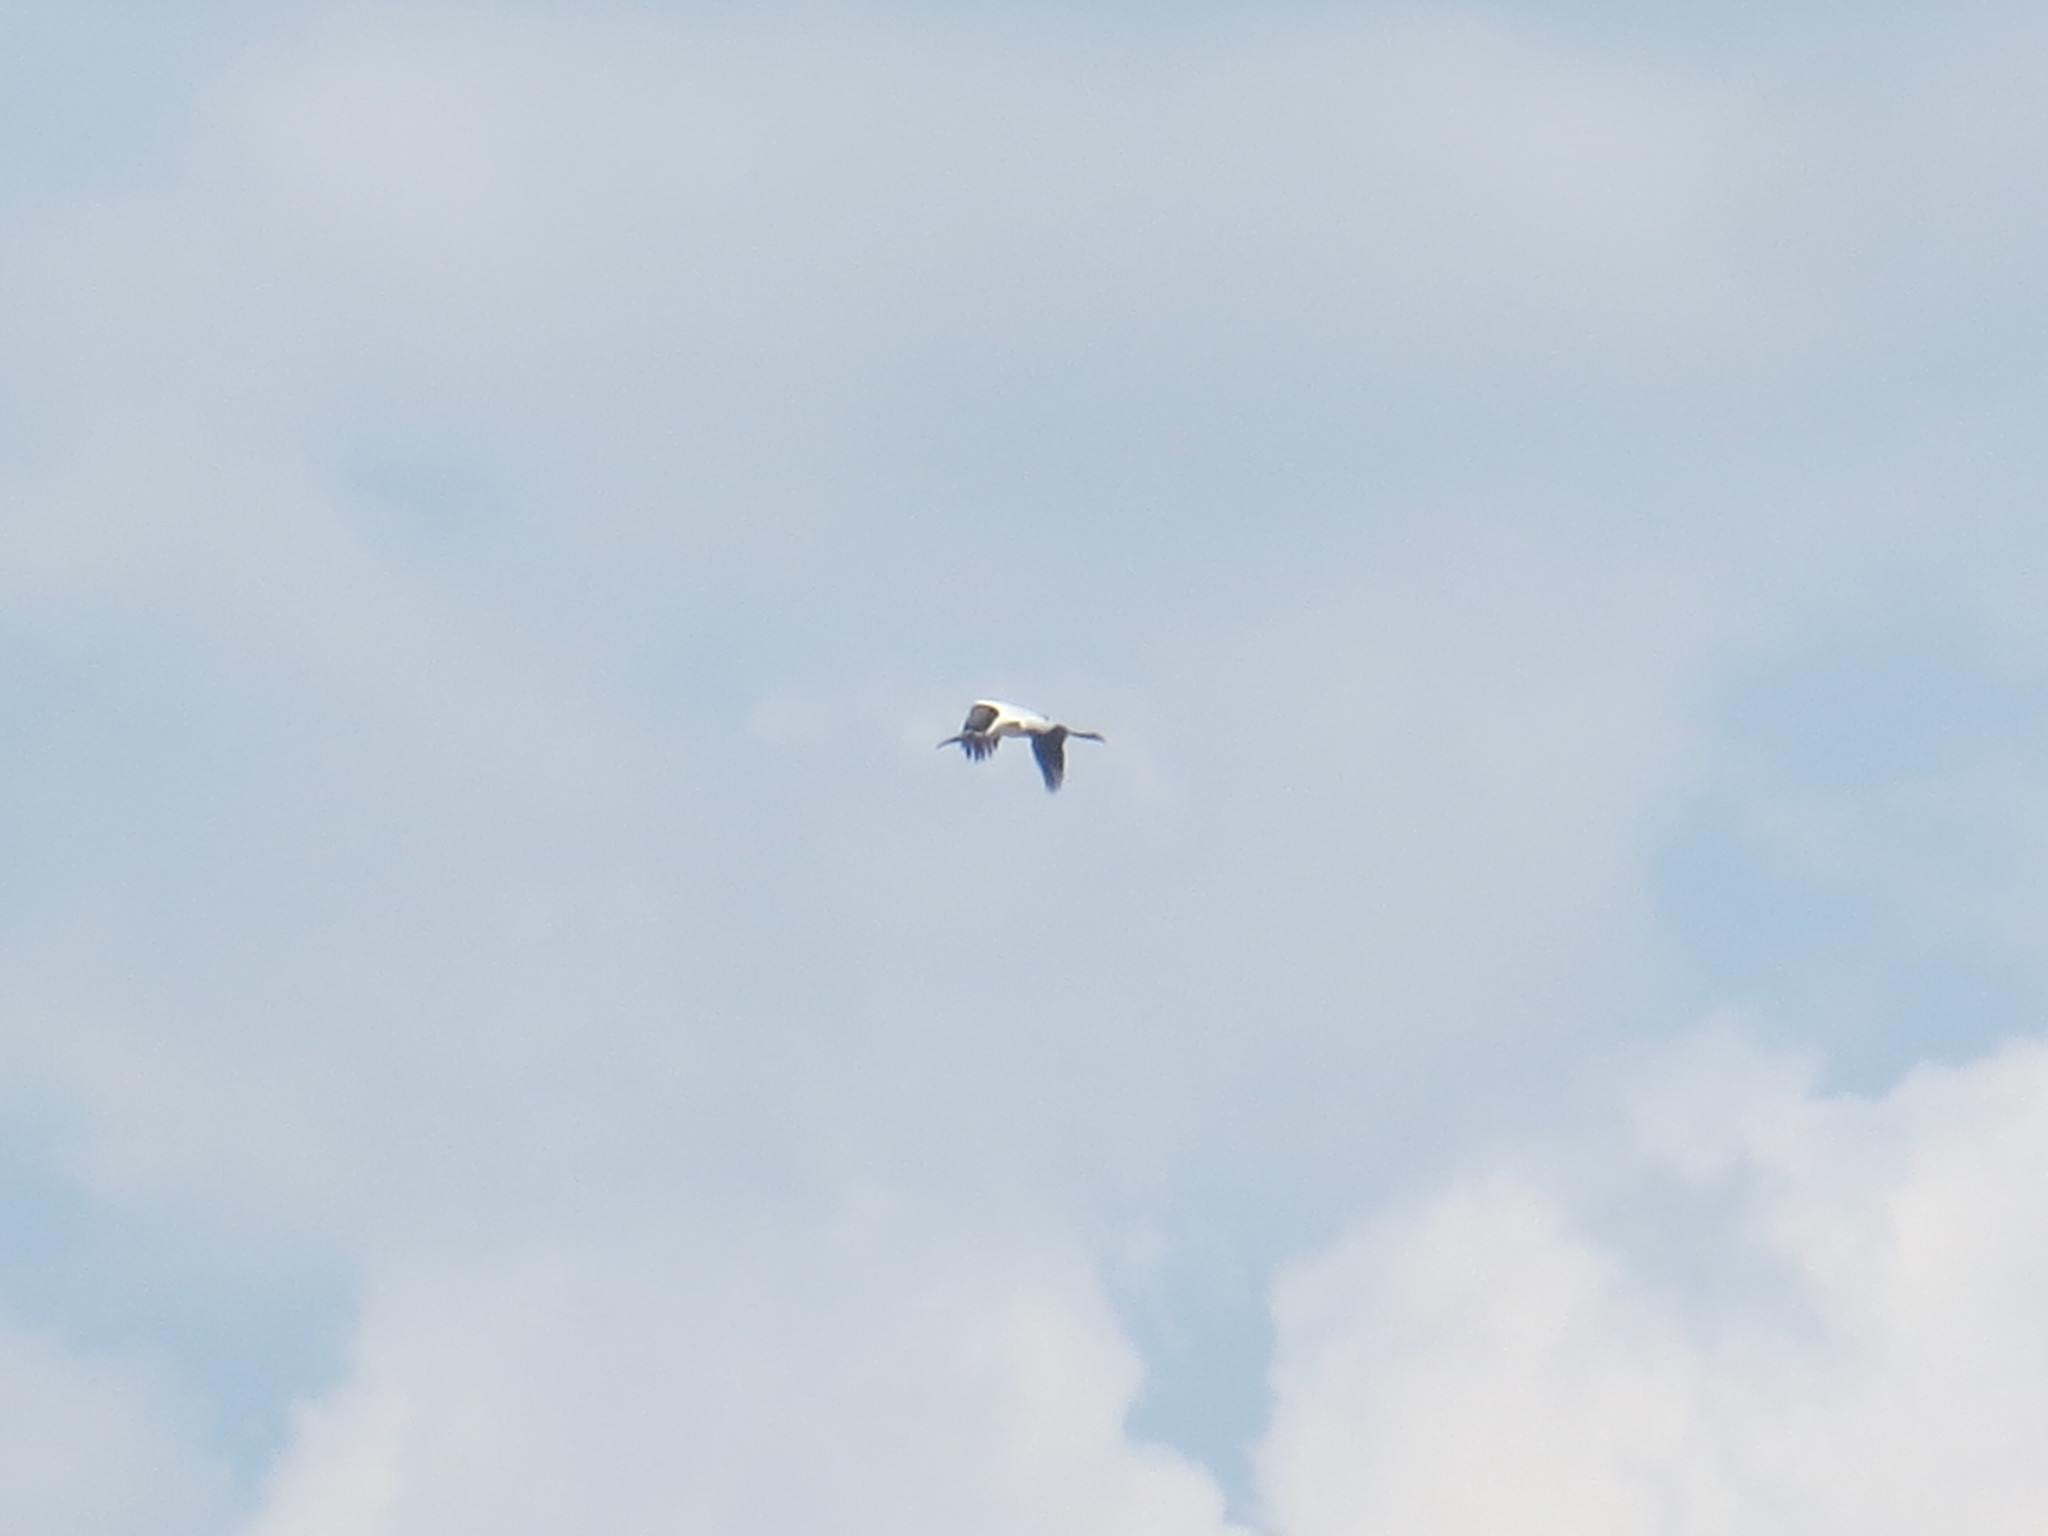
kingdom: Animalia
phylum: Chordata
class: Aves
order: Ciconiiformes
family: Ciconiidae
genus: Mycteria
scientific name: Mycteria americana
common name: Wood stork
